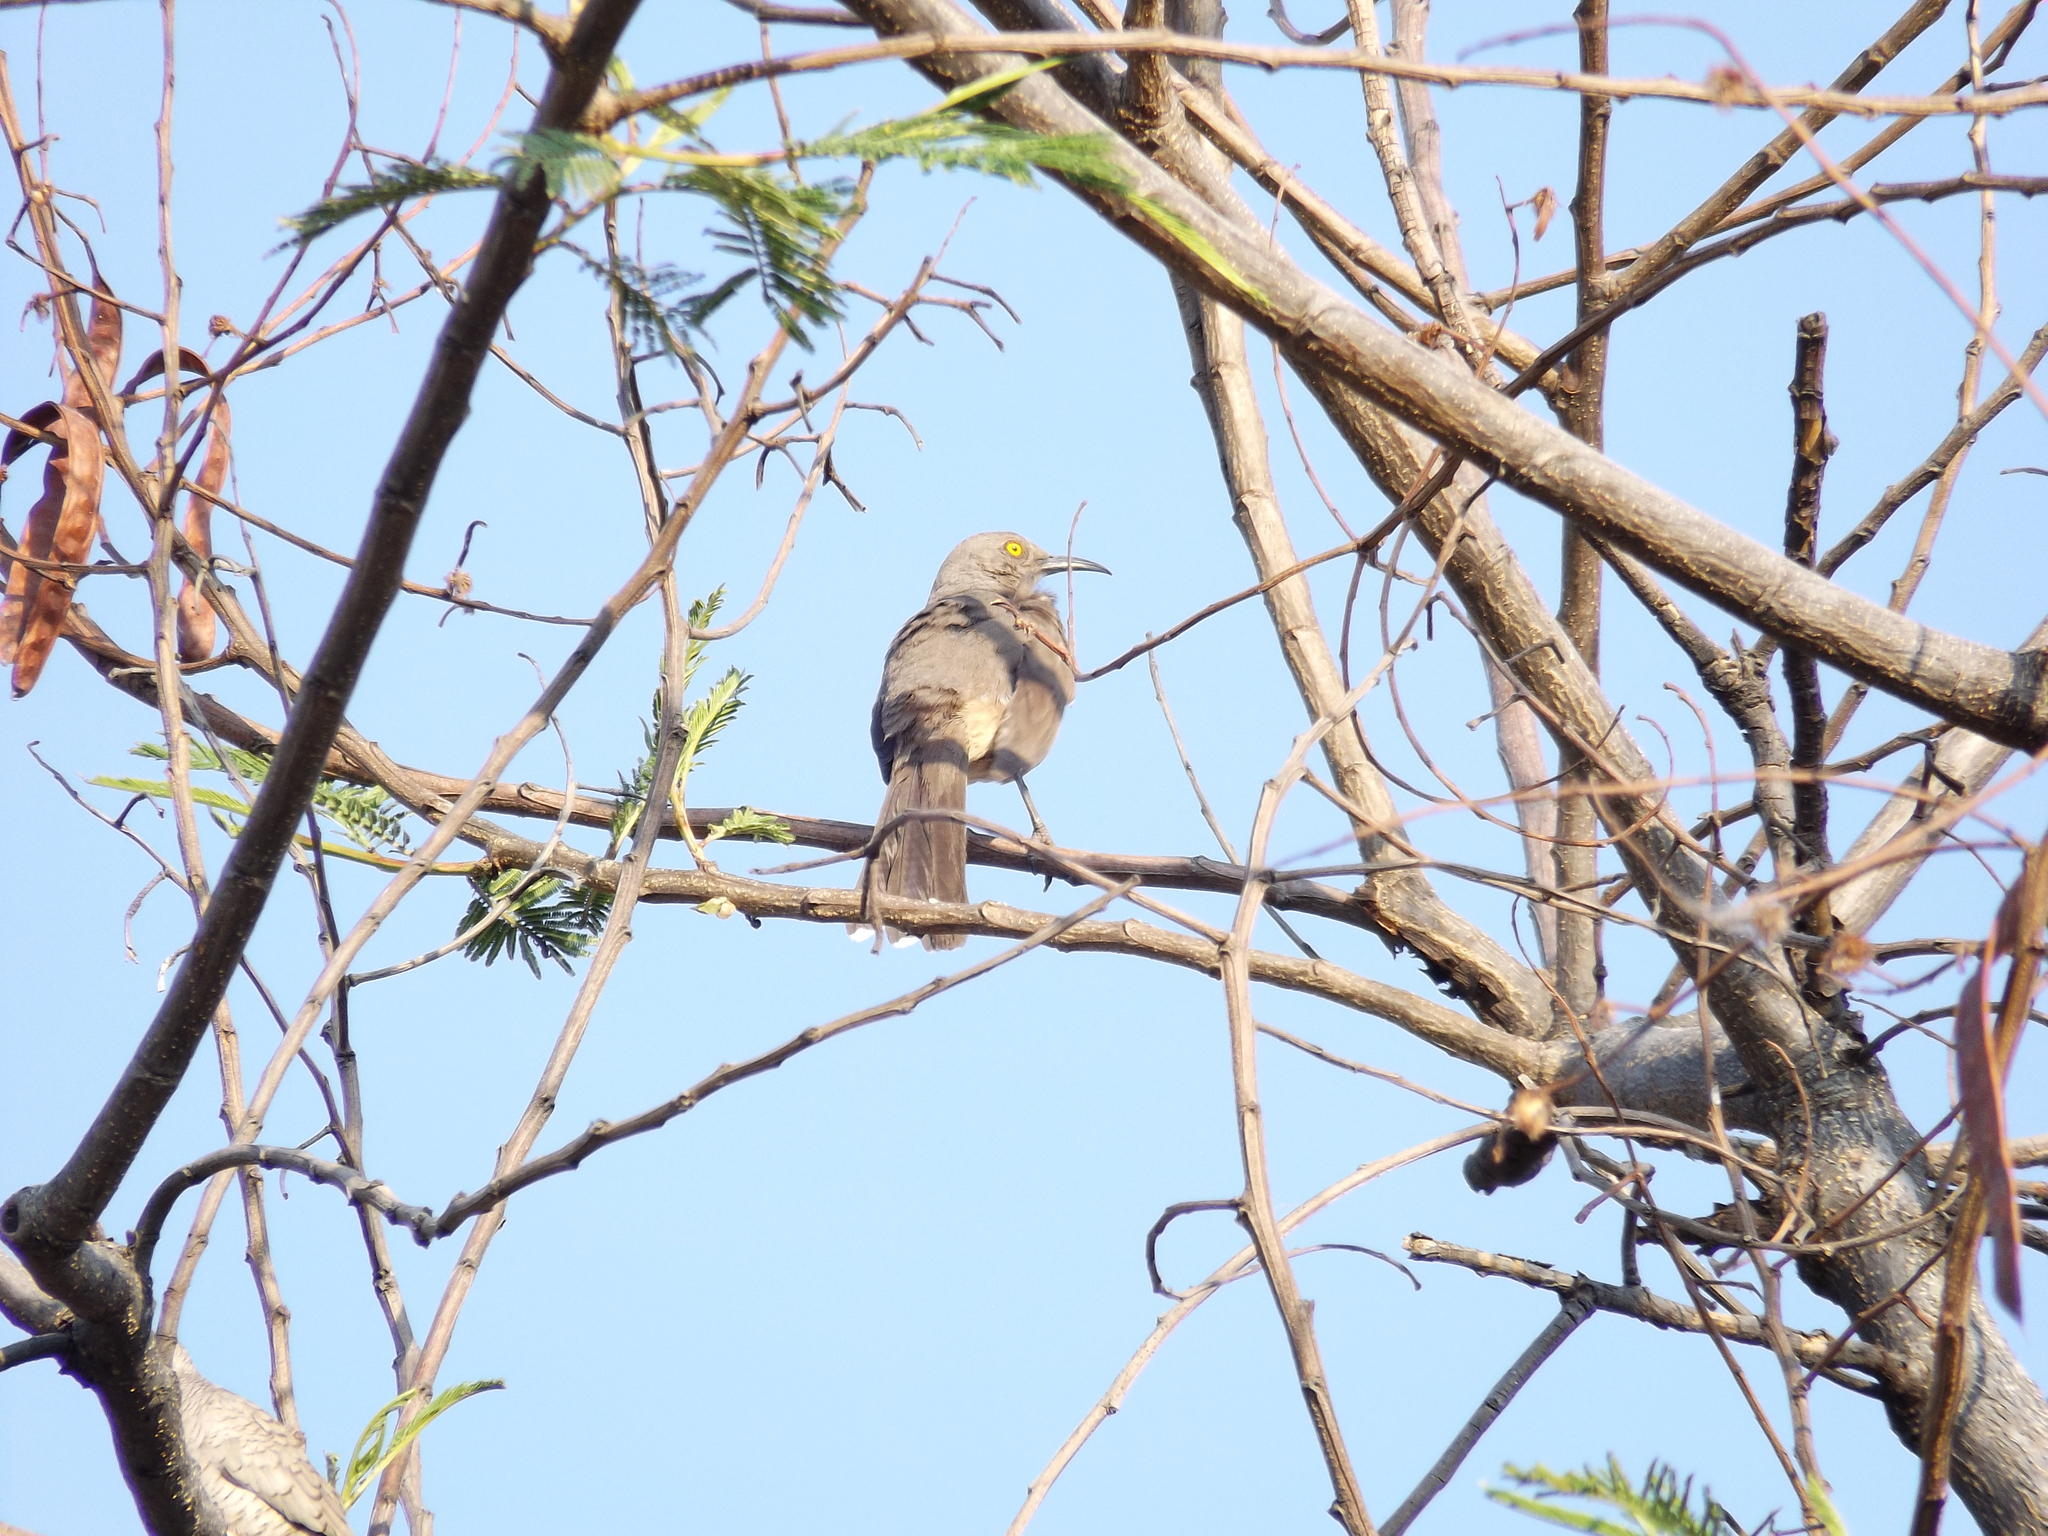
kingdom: Animalia
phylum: Chordata
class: Aves
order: Passeriformes
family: Mimidae
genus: Toxostoma
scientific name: Toxostoma curvirostre
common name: Curve-billed thrasher
